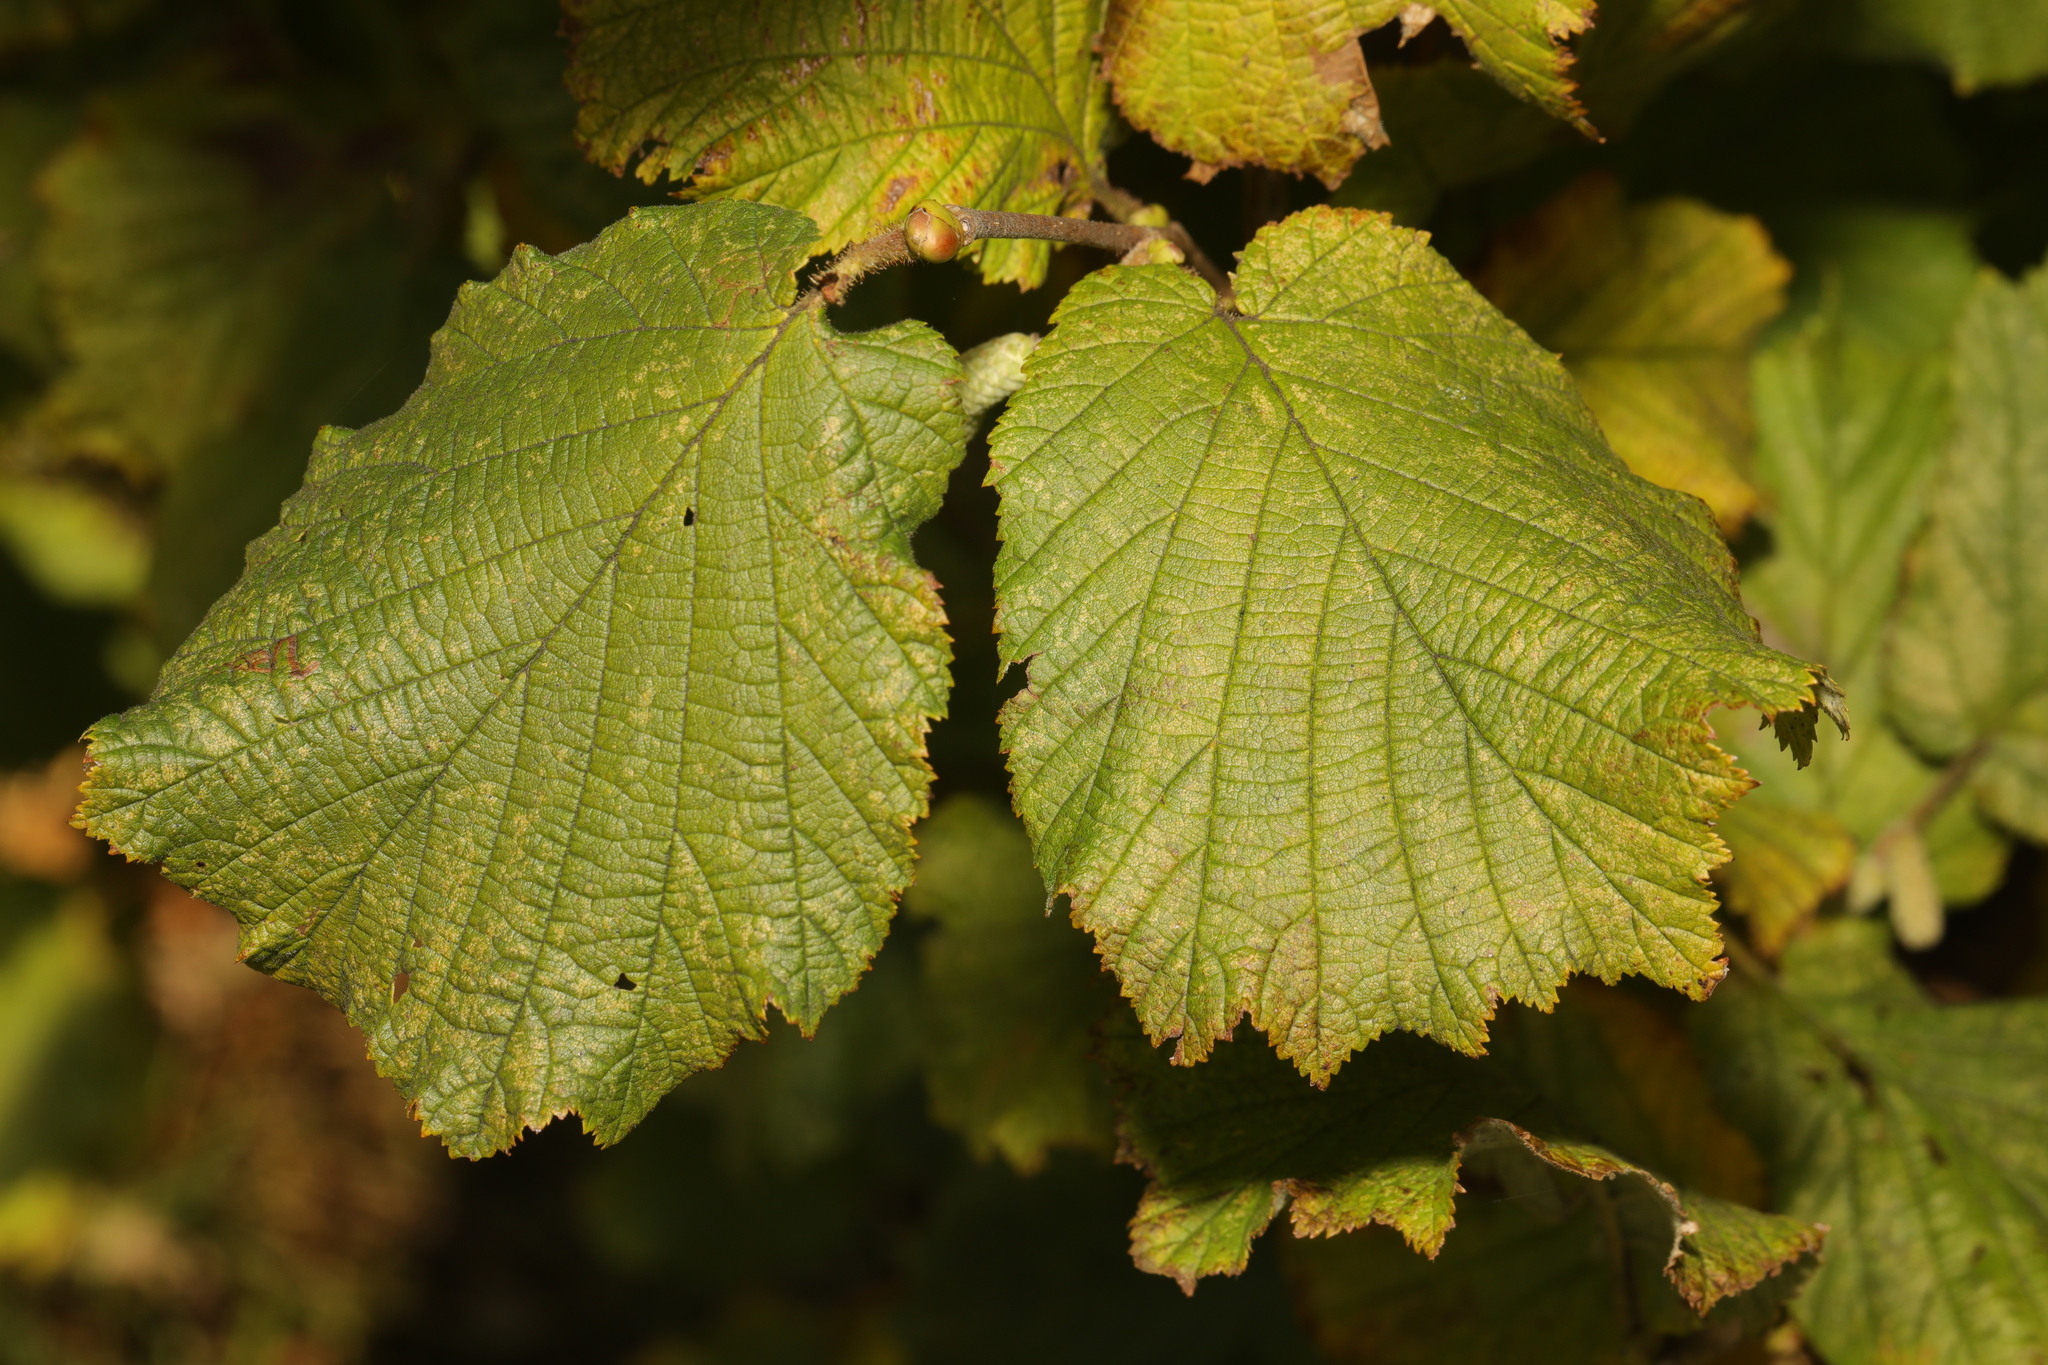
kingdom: Plantae
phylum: Tracheophyta
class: Magnoliopsida
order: Fagales
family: Betulaceae
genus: Corylus
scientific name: Corylus avellana
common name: European hazel
